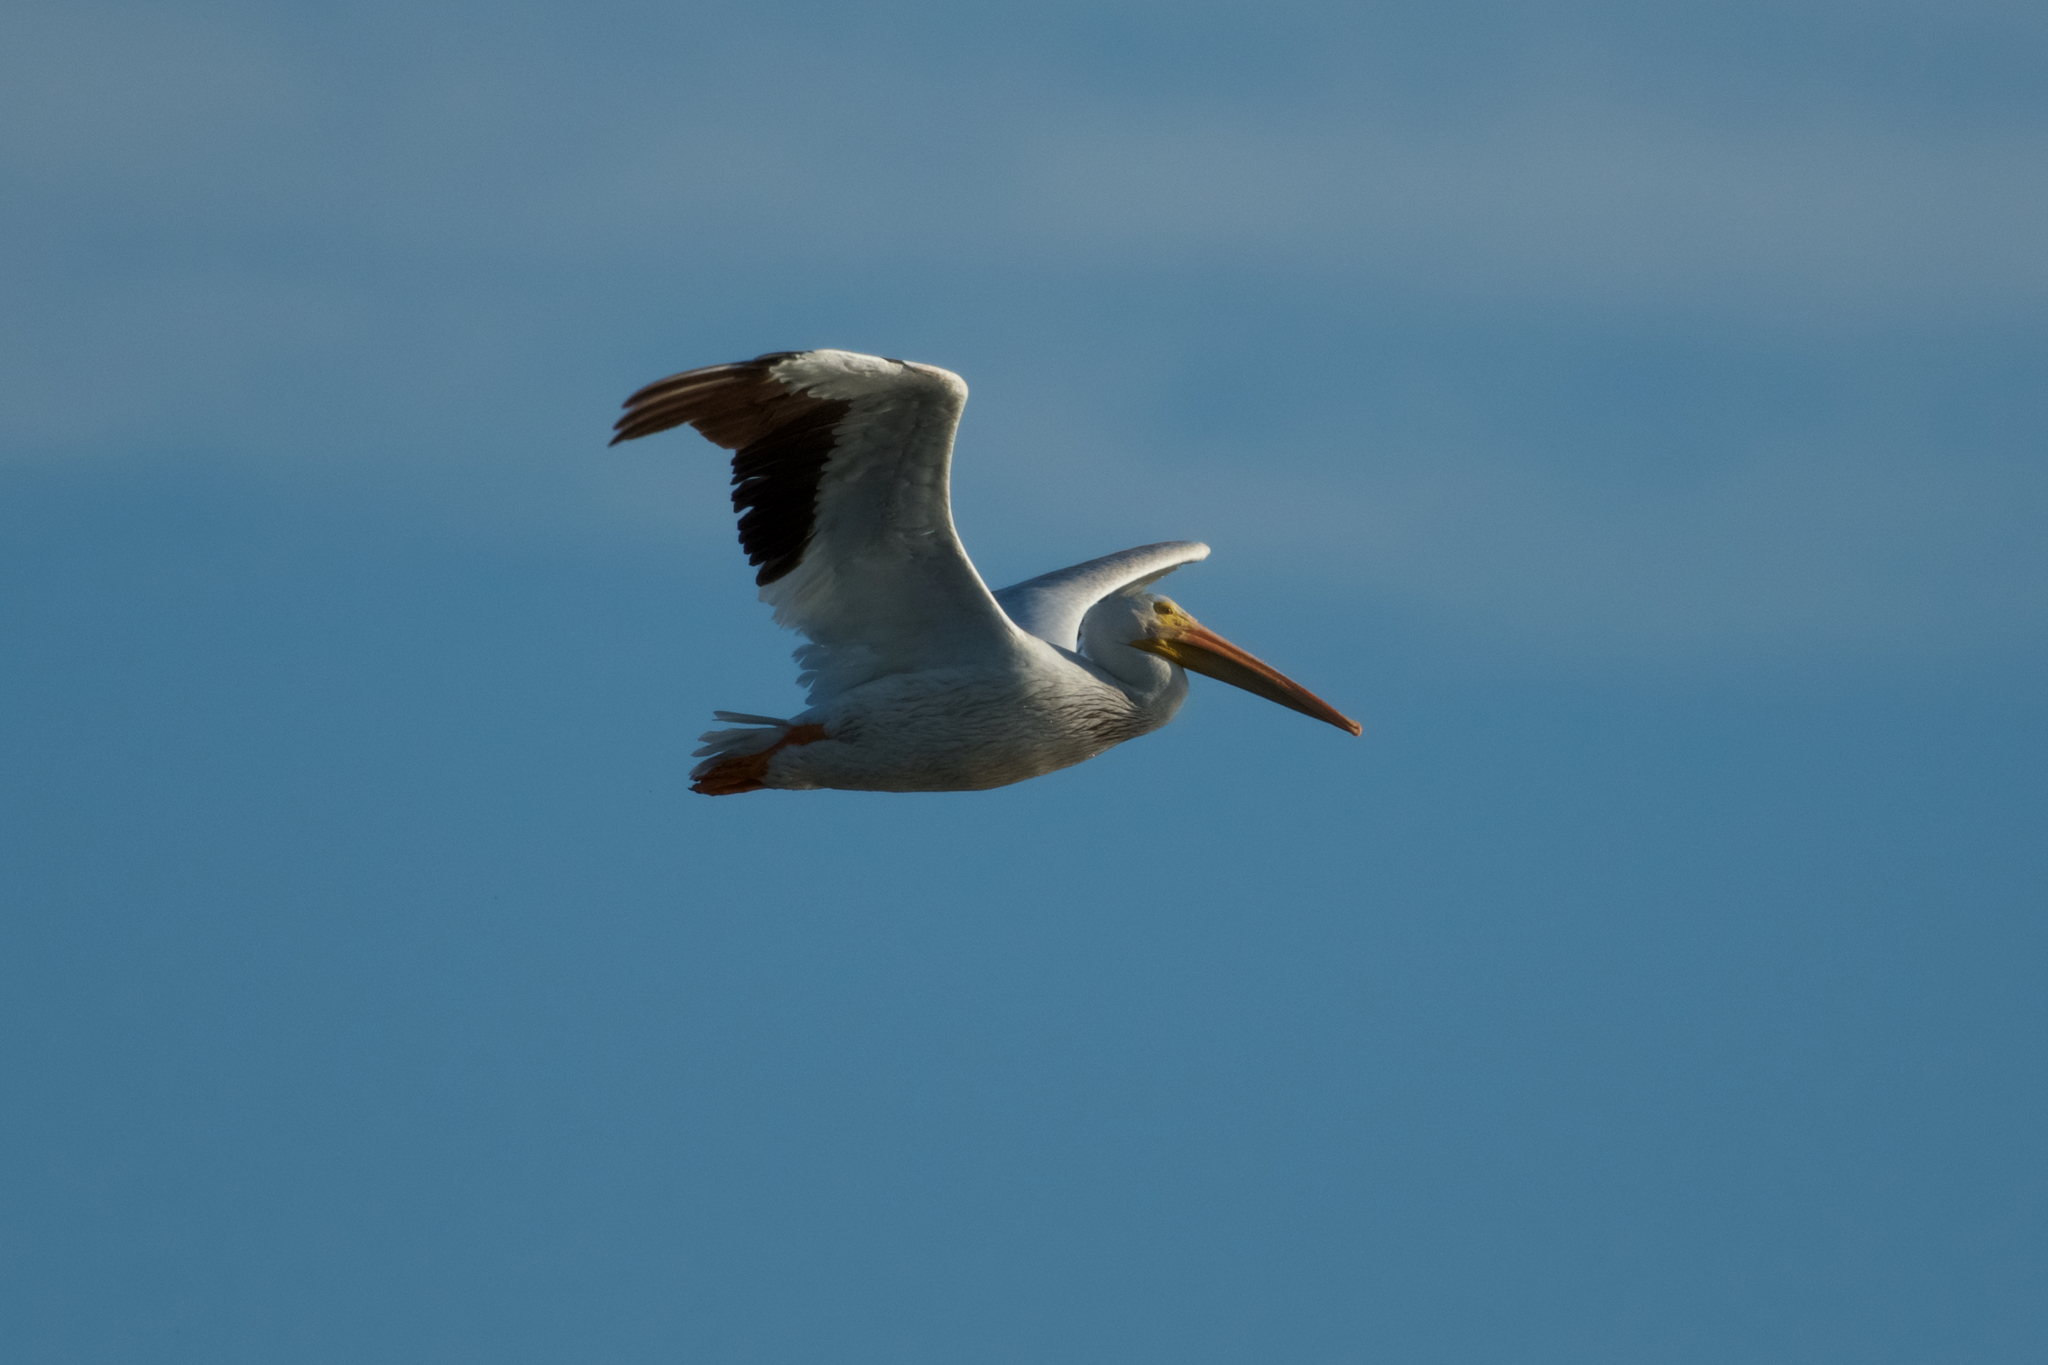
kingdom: Animalia
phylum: Chordata
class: Aves
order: Pelecaniformes
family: Pelecanidae
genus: Pelecanus
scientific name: Pelecanus erythrorhynchos
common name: American white pelican
